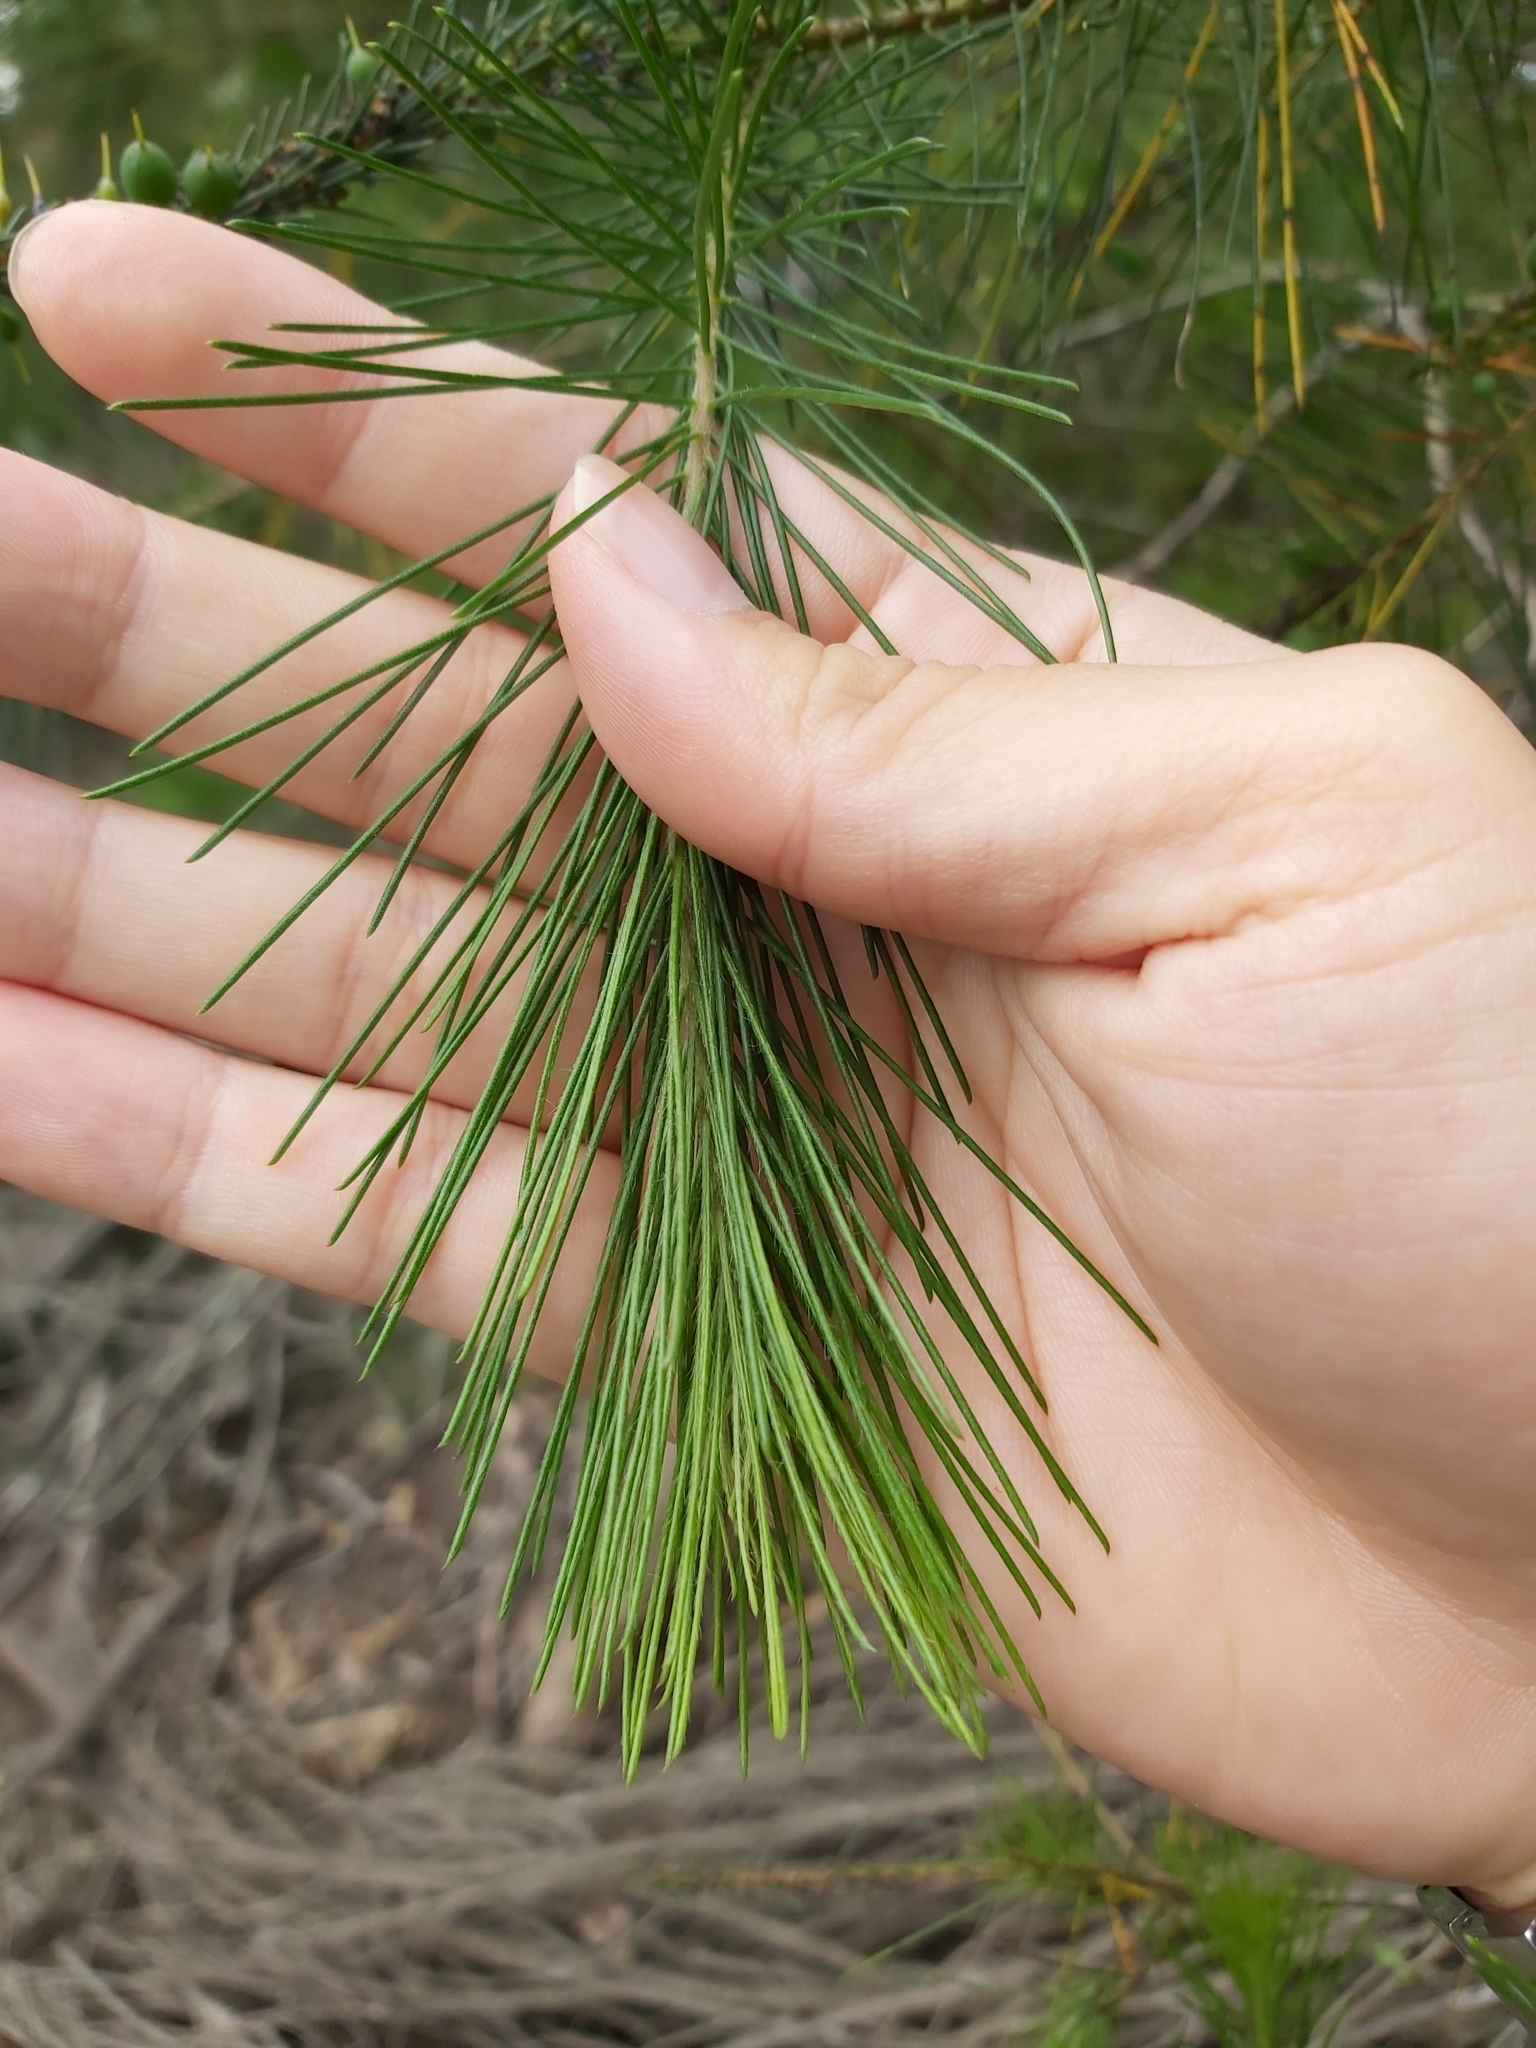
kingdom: Plantae
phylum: Tracheophyta
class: Magnoliopsida
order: Proteales
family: Proteaceae
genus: Persoonia
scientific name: Persoonia pinifolia
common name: Pine-leaf geebung
